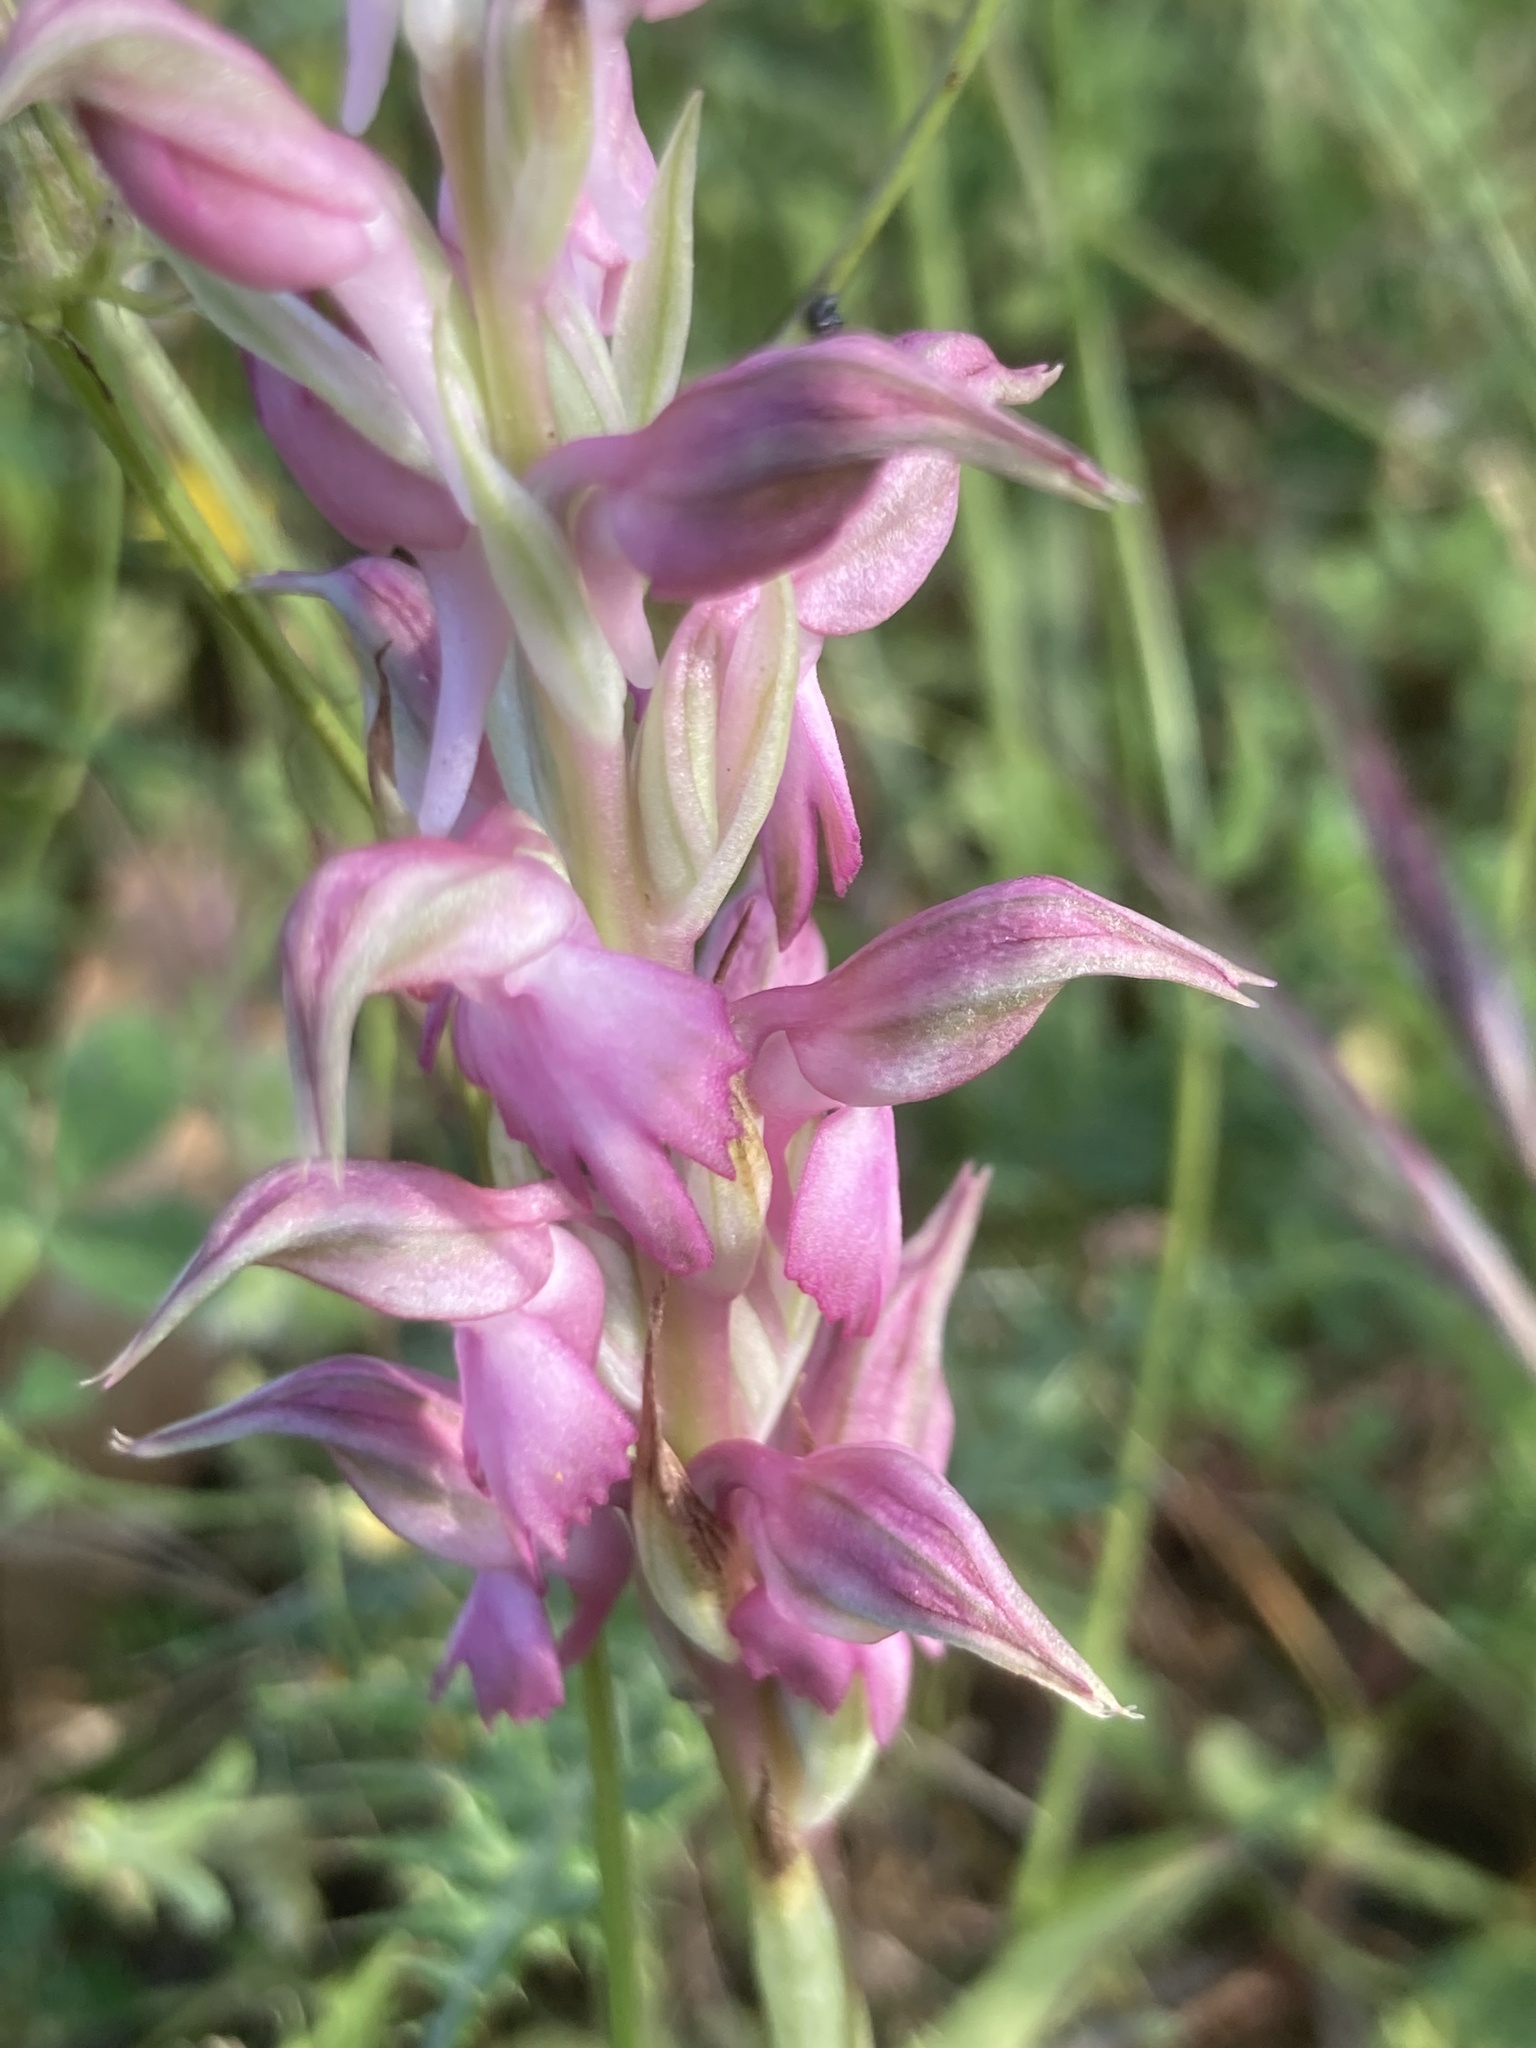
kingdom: Plantae
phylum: Tracheophyta
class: Liliopsida
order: Asparagales
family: Orchidaceae
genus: Anacamptis
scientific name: Anacamptis sancta
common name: Holy orchid
